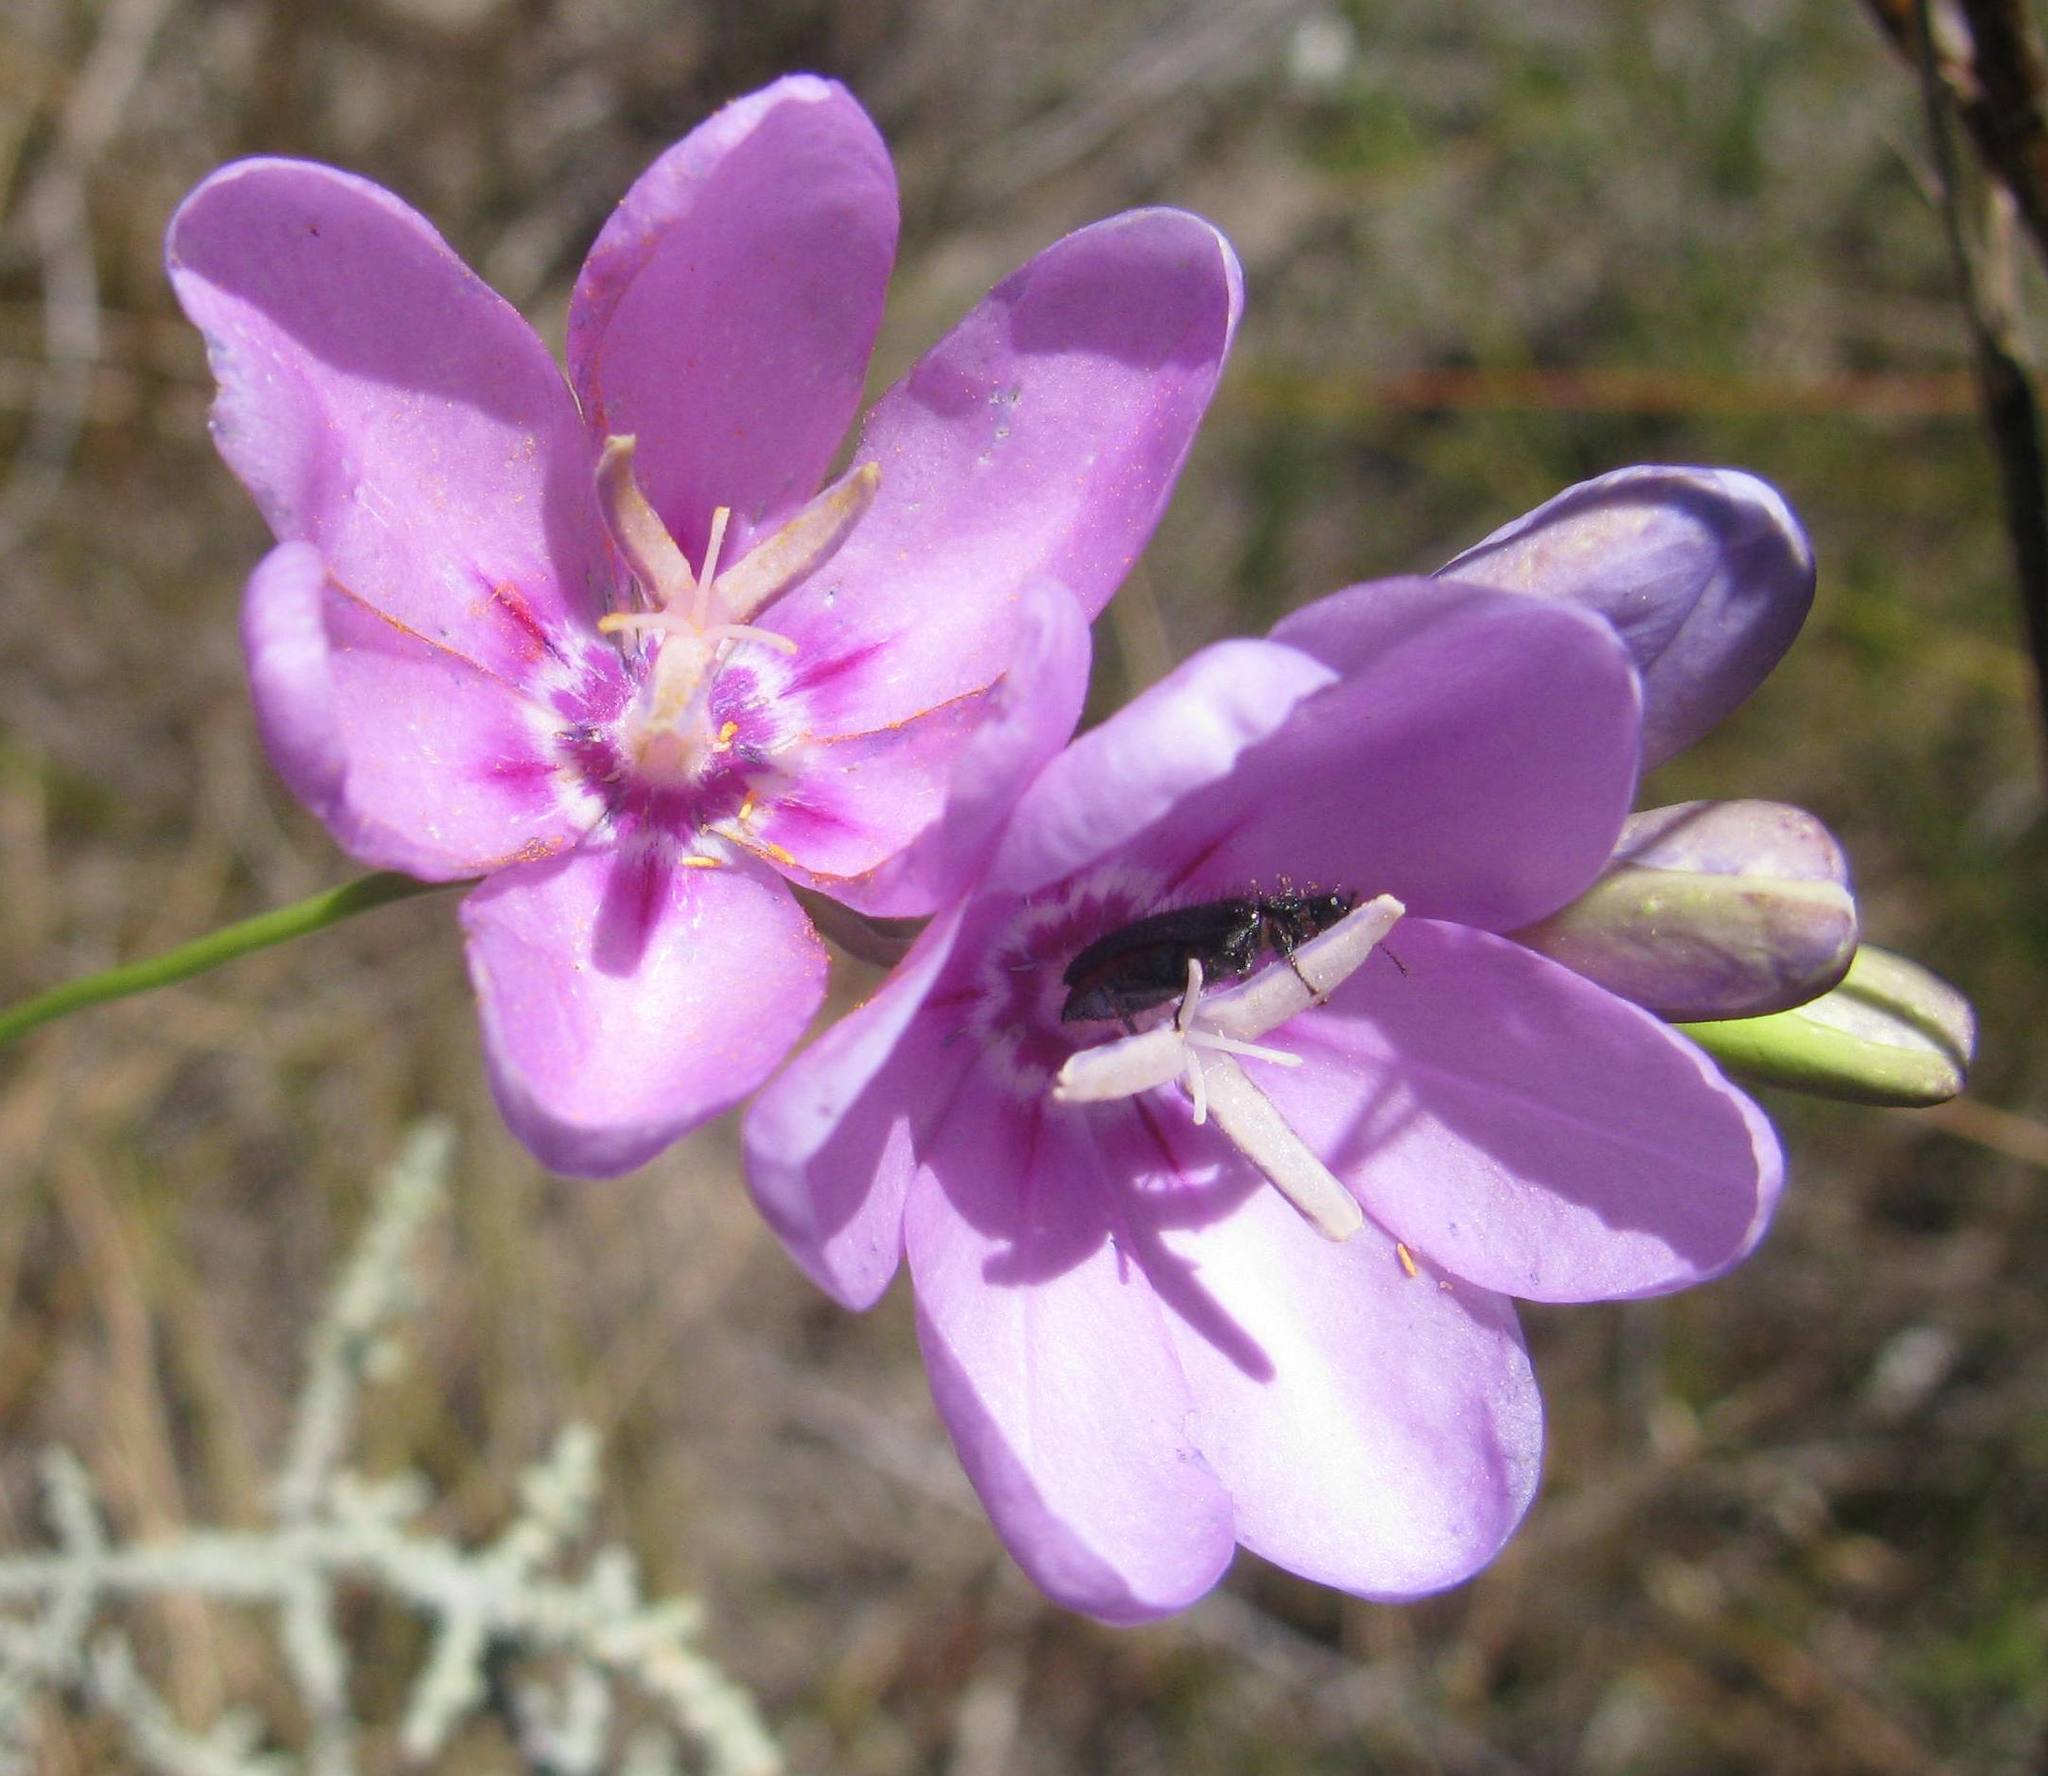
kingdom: Plantae
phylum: Tracheophyta
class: Liliopsida
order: Asparagales
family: Iridaceae
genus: Ixia
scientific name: Ixia metelerkampiae
